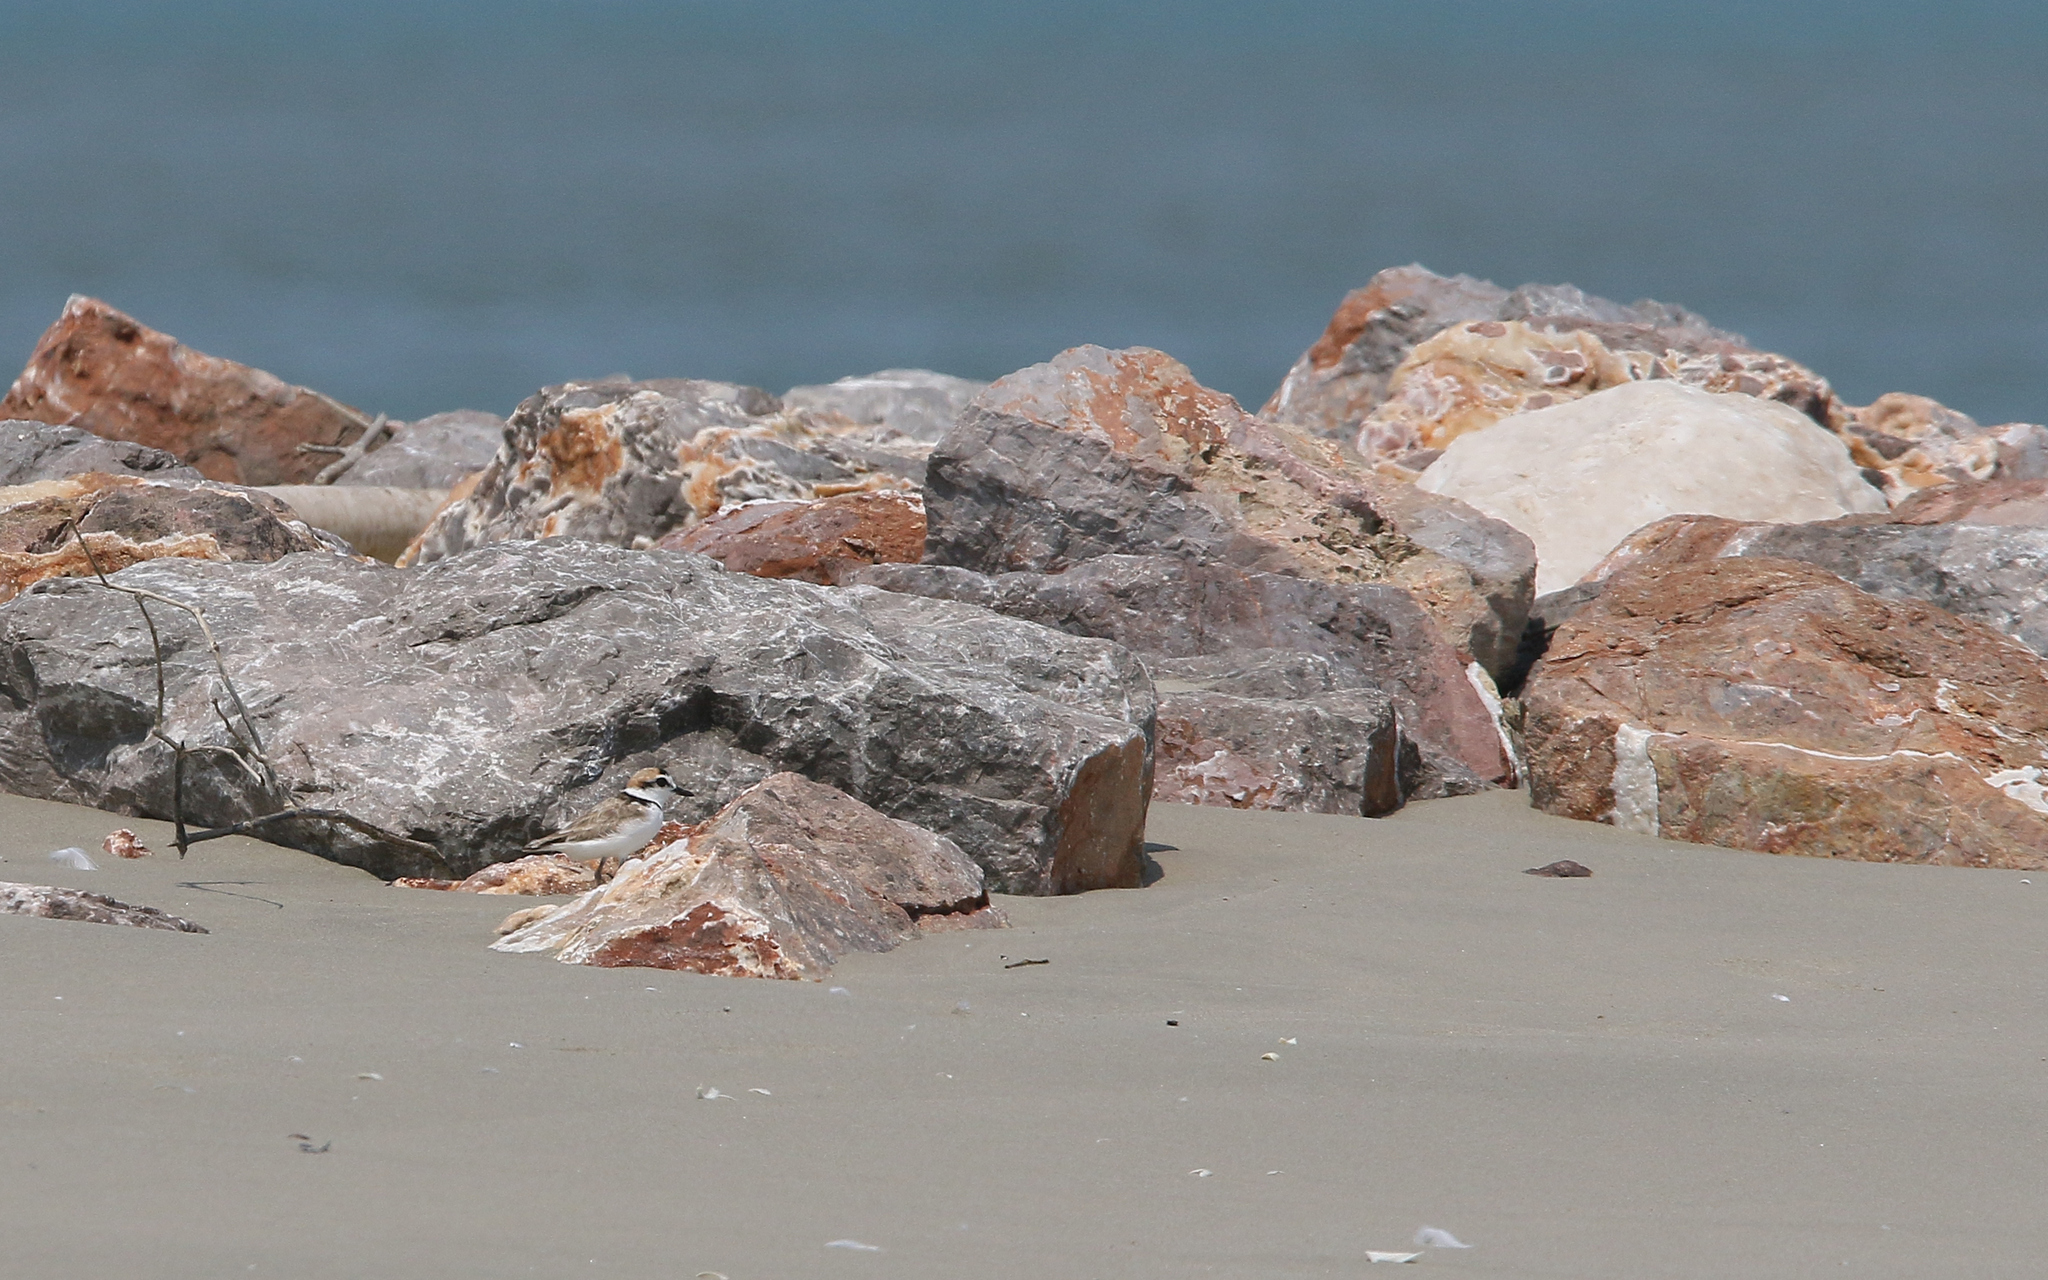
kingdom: Animalia
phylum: Chordata
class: Aves
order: Charadriiformes
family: Charadriidae
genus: Anarhynchus
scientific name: Anarhynchus
